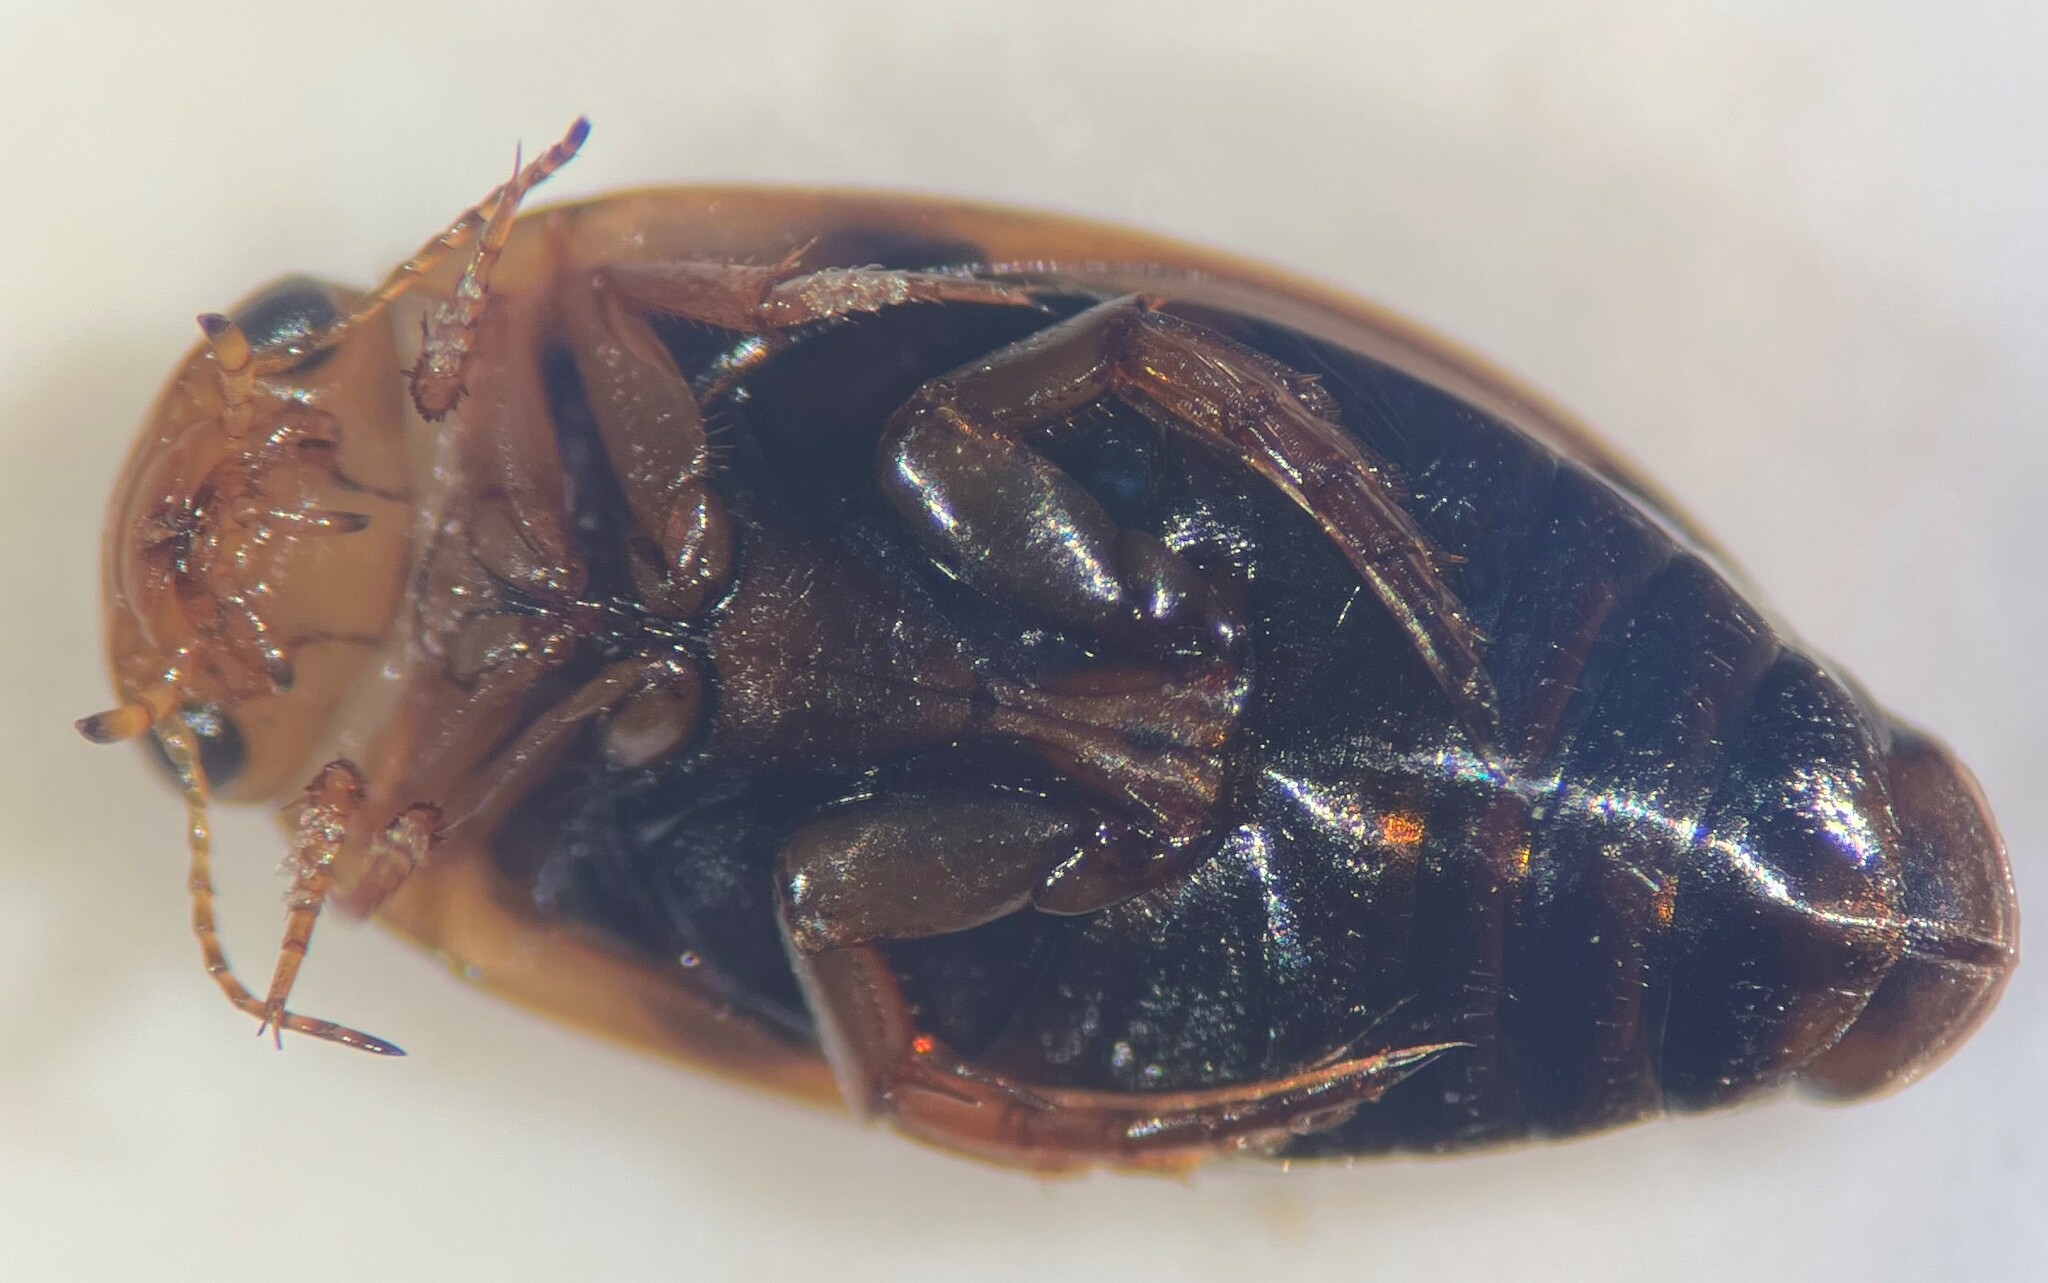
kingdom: Animalia
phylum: Arthropoda
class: Insecta
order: Coleoptera
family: Dytiscidae
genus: Laccophilus
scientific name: Laccophilus biguttatus
